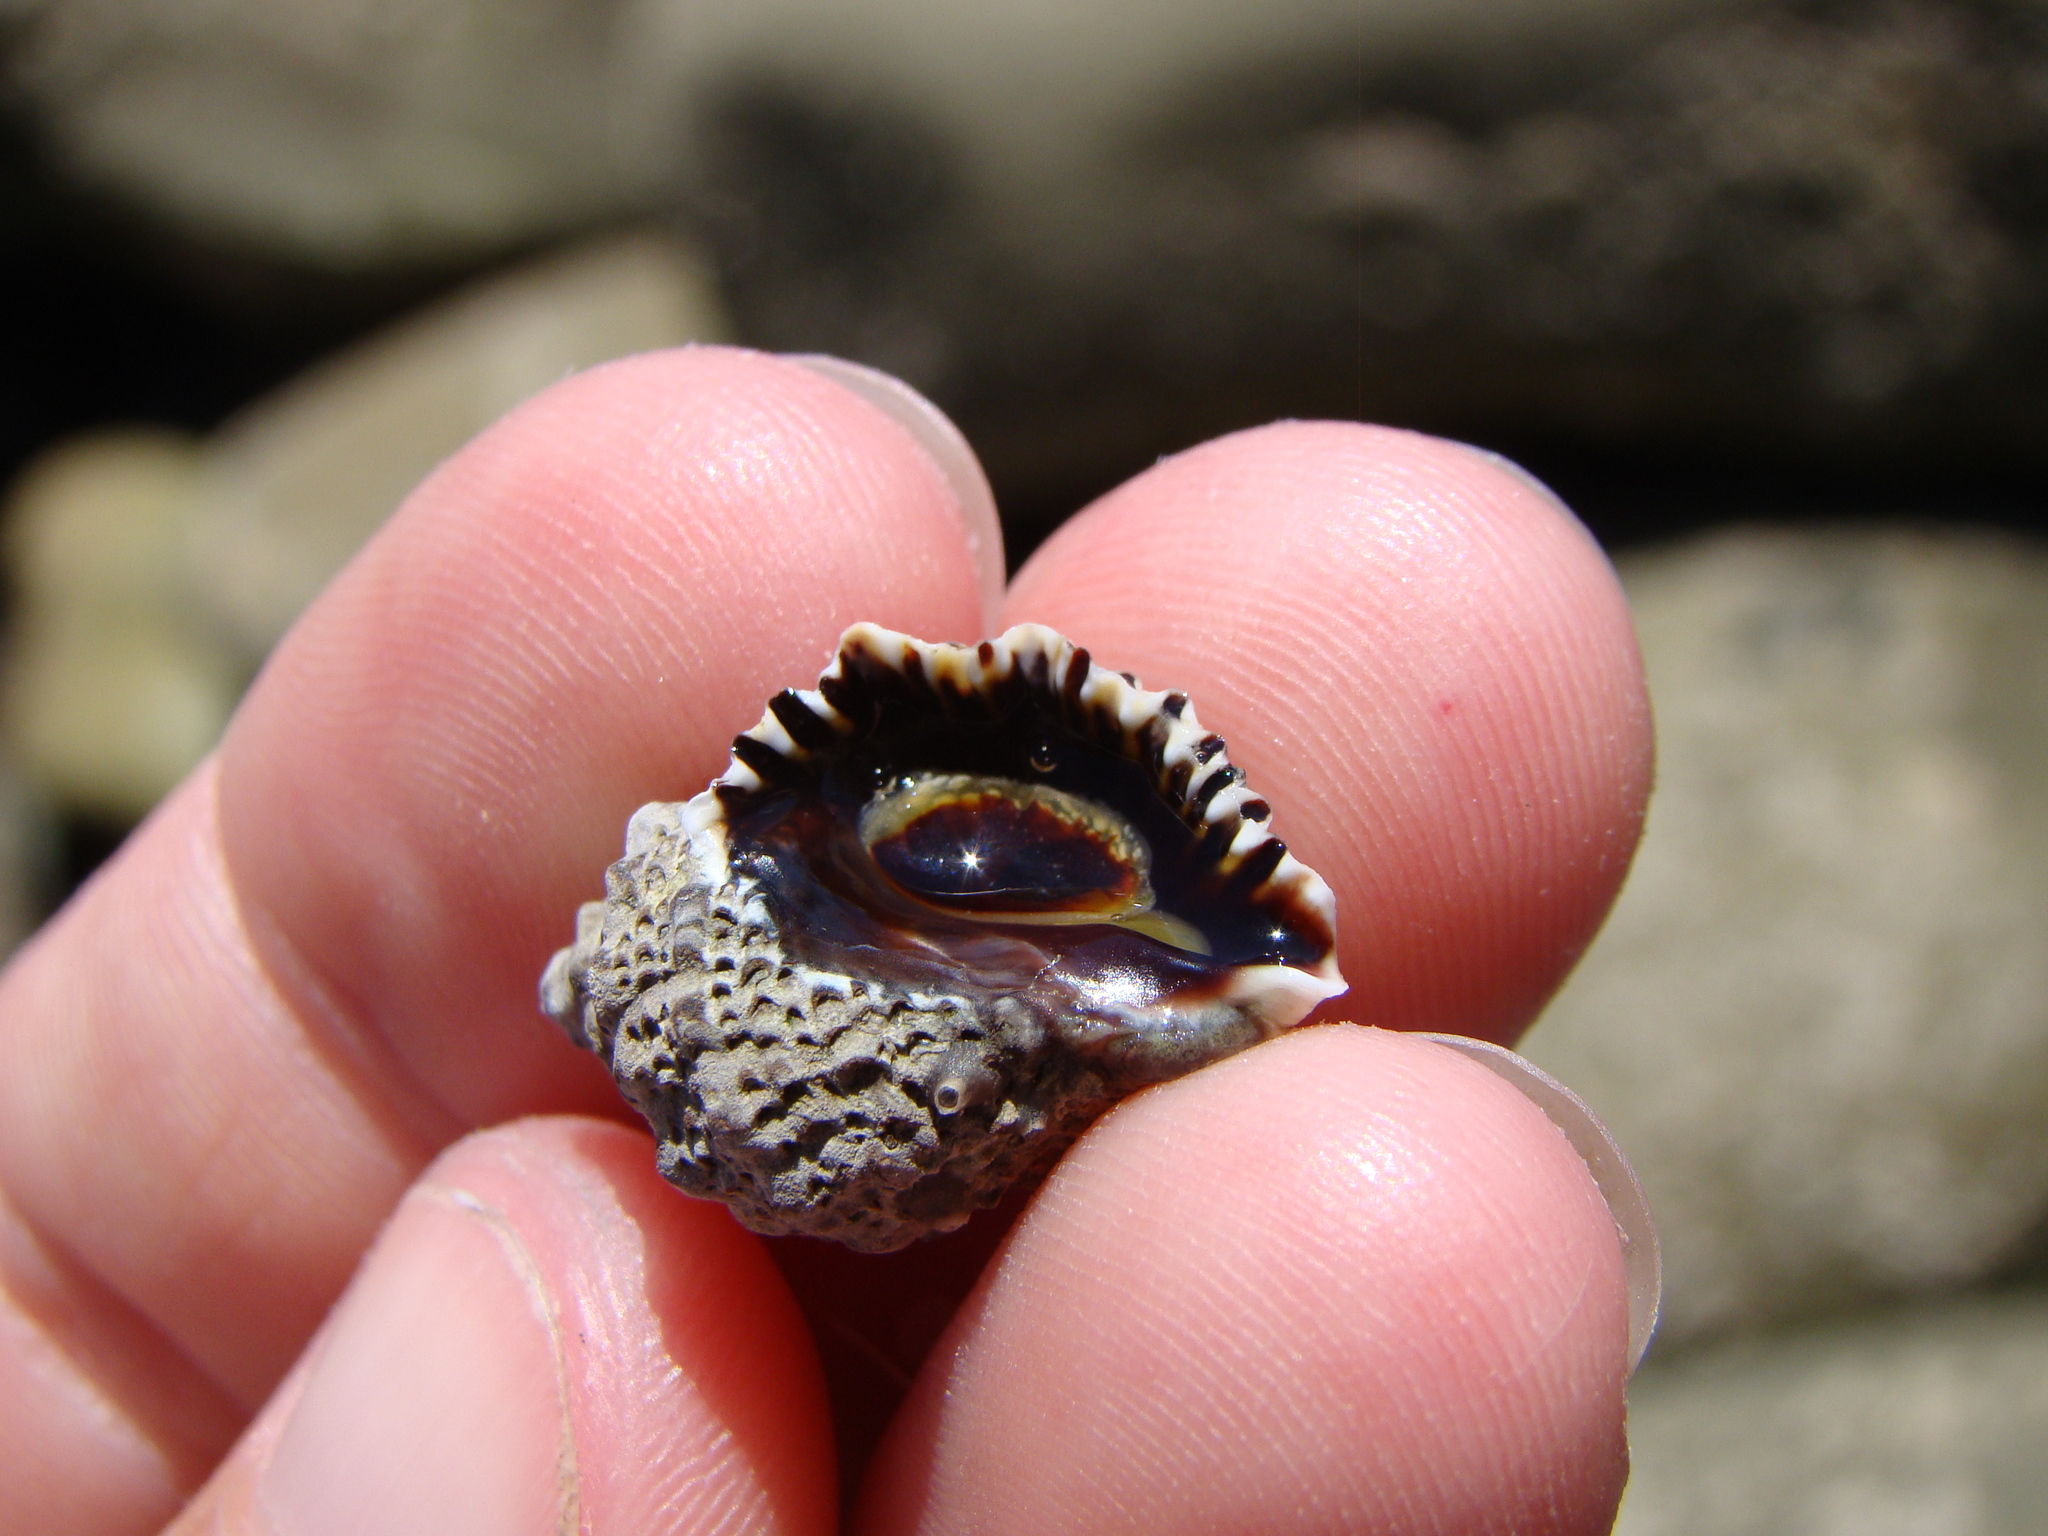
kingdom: Animalia
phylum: Mollusca
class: Gastropoda
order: Neogastropoda
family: Muricidae
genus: Haustrum
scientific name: Haustrum scobina
